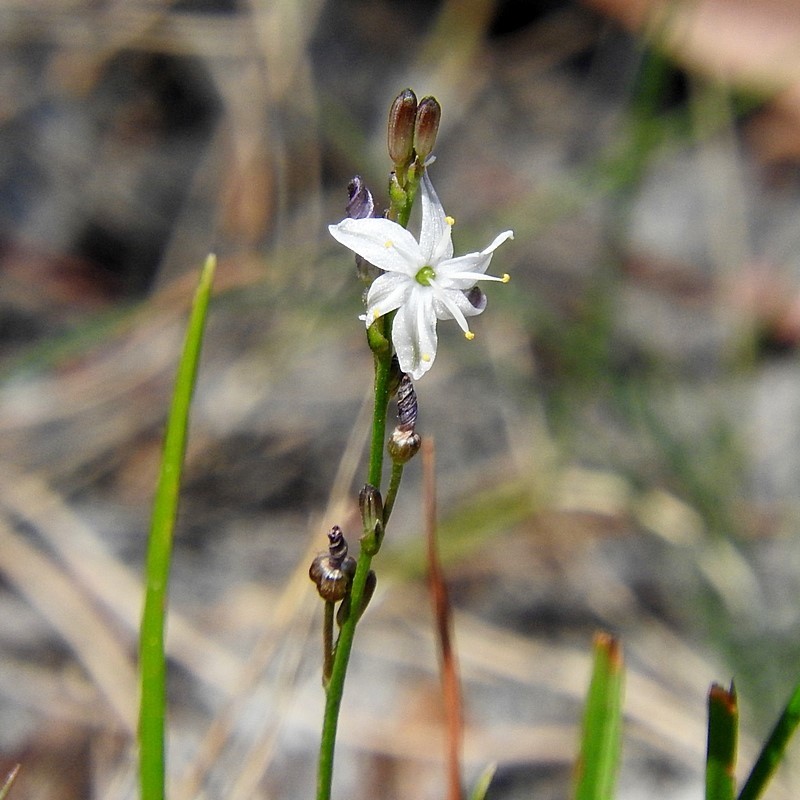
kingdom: Plantae
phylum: Tracheophyta
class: Liliopsida
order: Asparagales
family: Asphodelaceae
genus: Caesia
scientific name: Caesia parviflora
